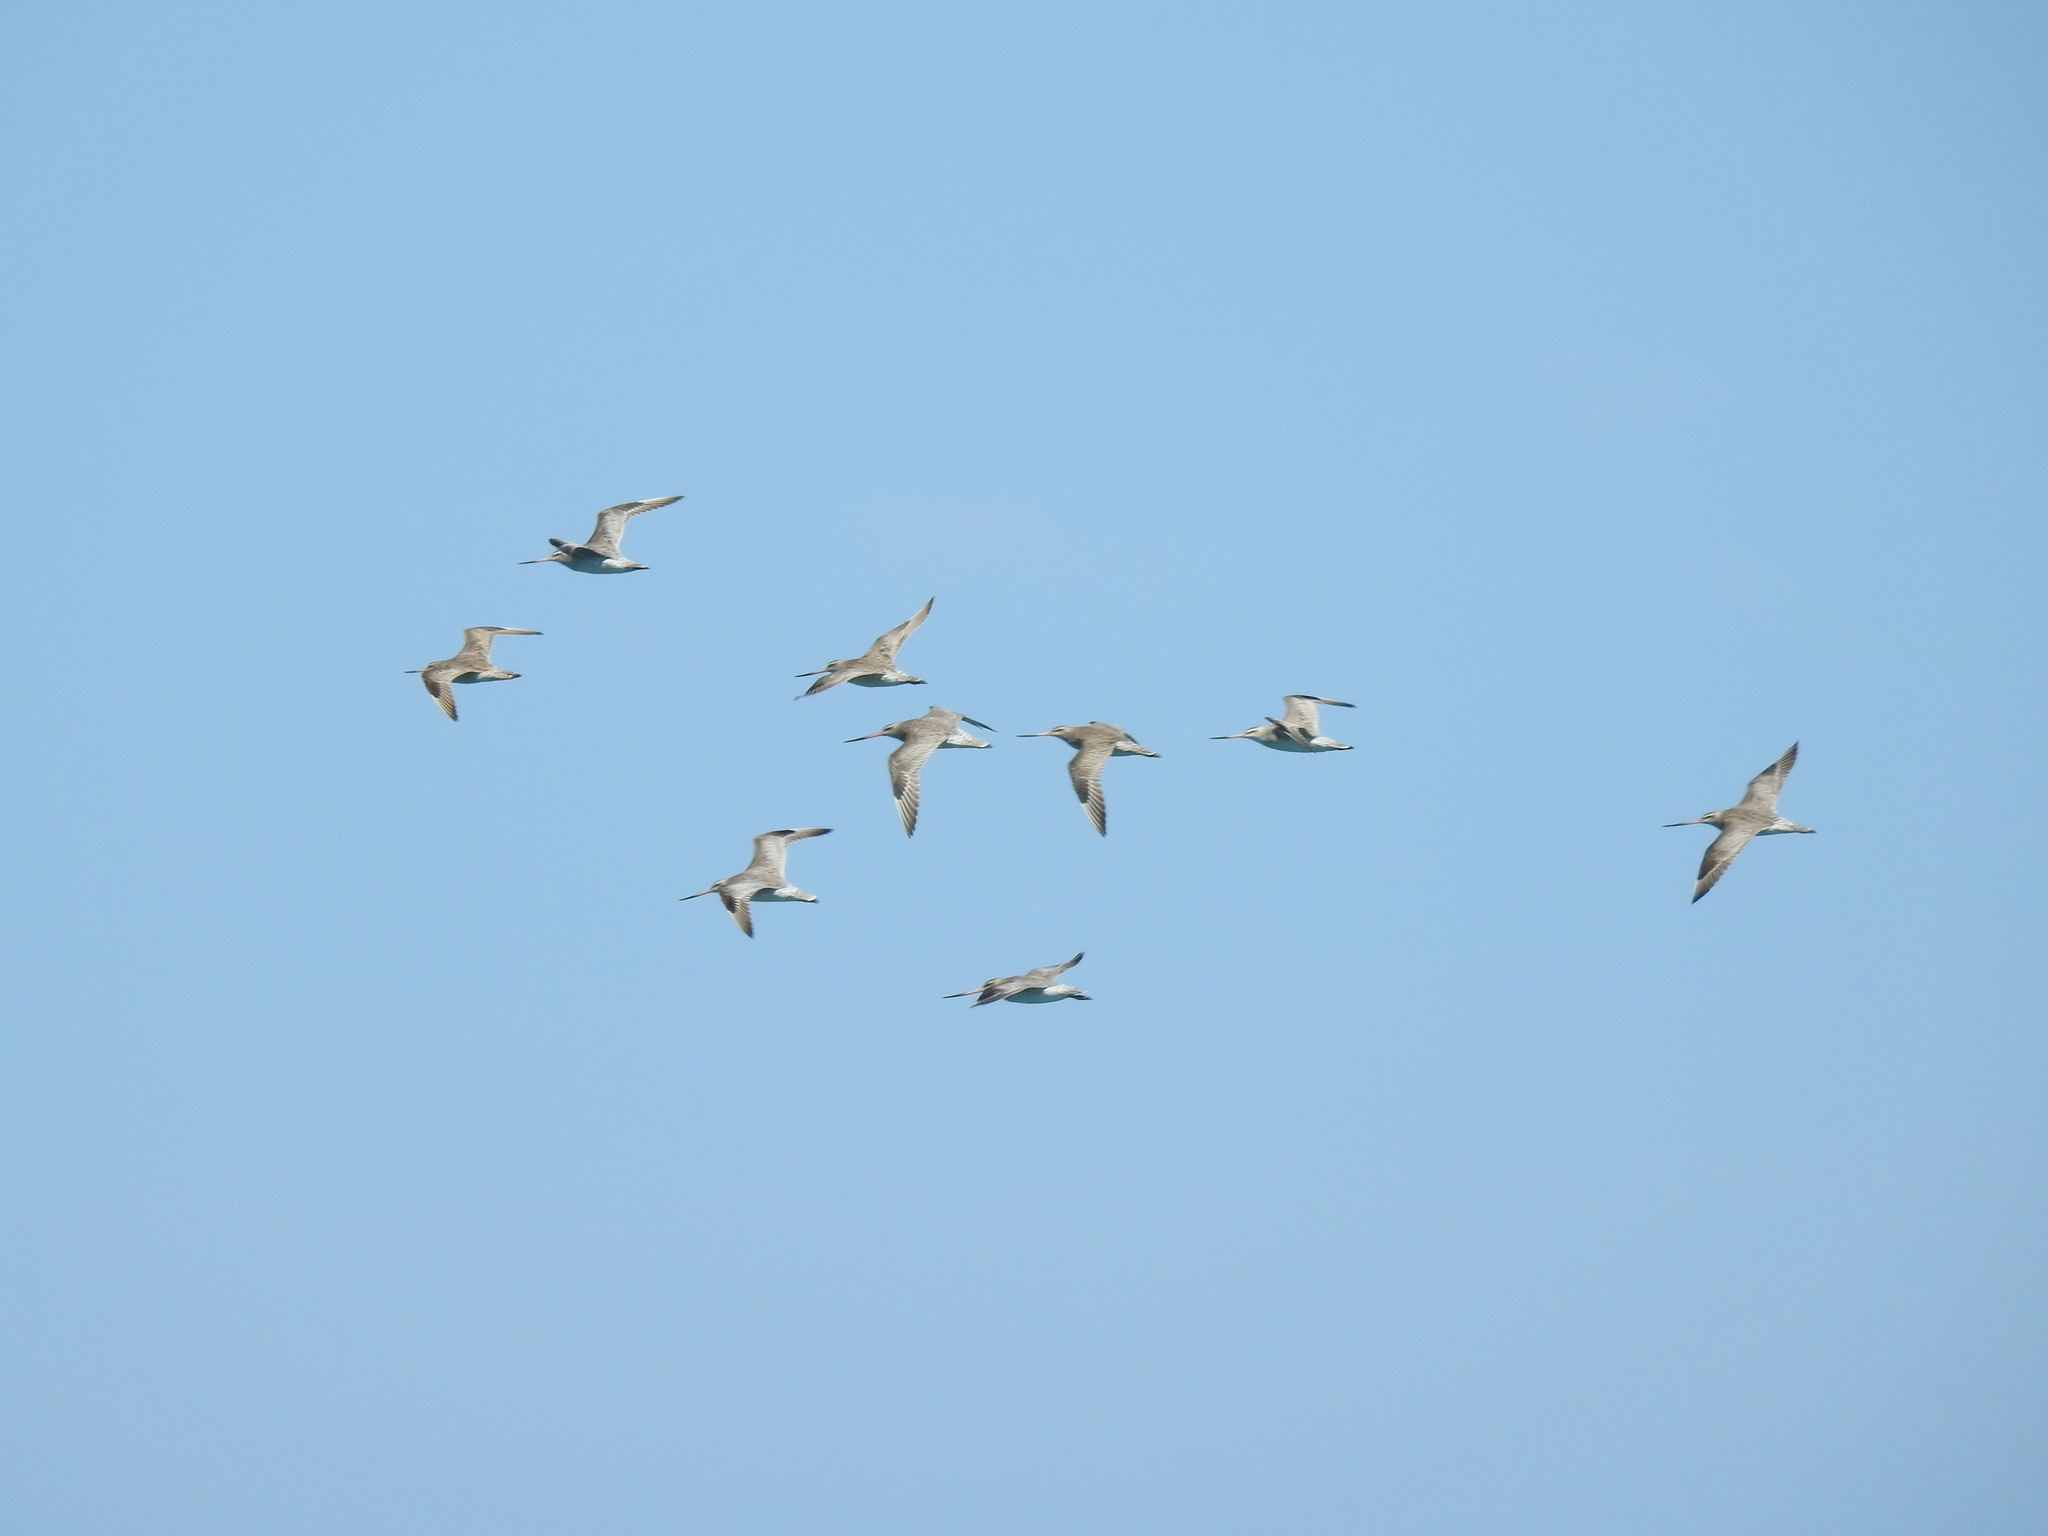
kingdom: Animalia
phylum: Chordata
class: Aves
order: Charadriiformes
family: Scolopacidae
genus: Limosa
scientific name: Limosa lapponica
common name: Bar-tailed godwit
